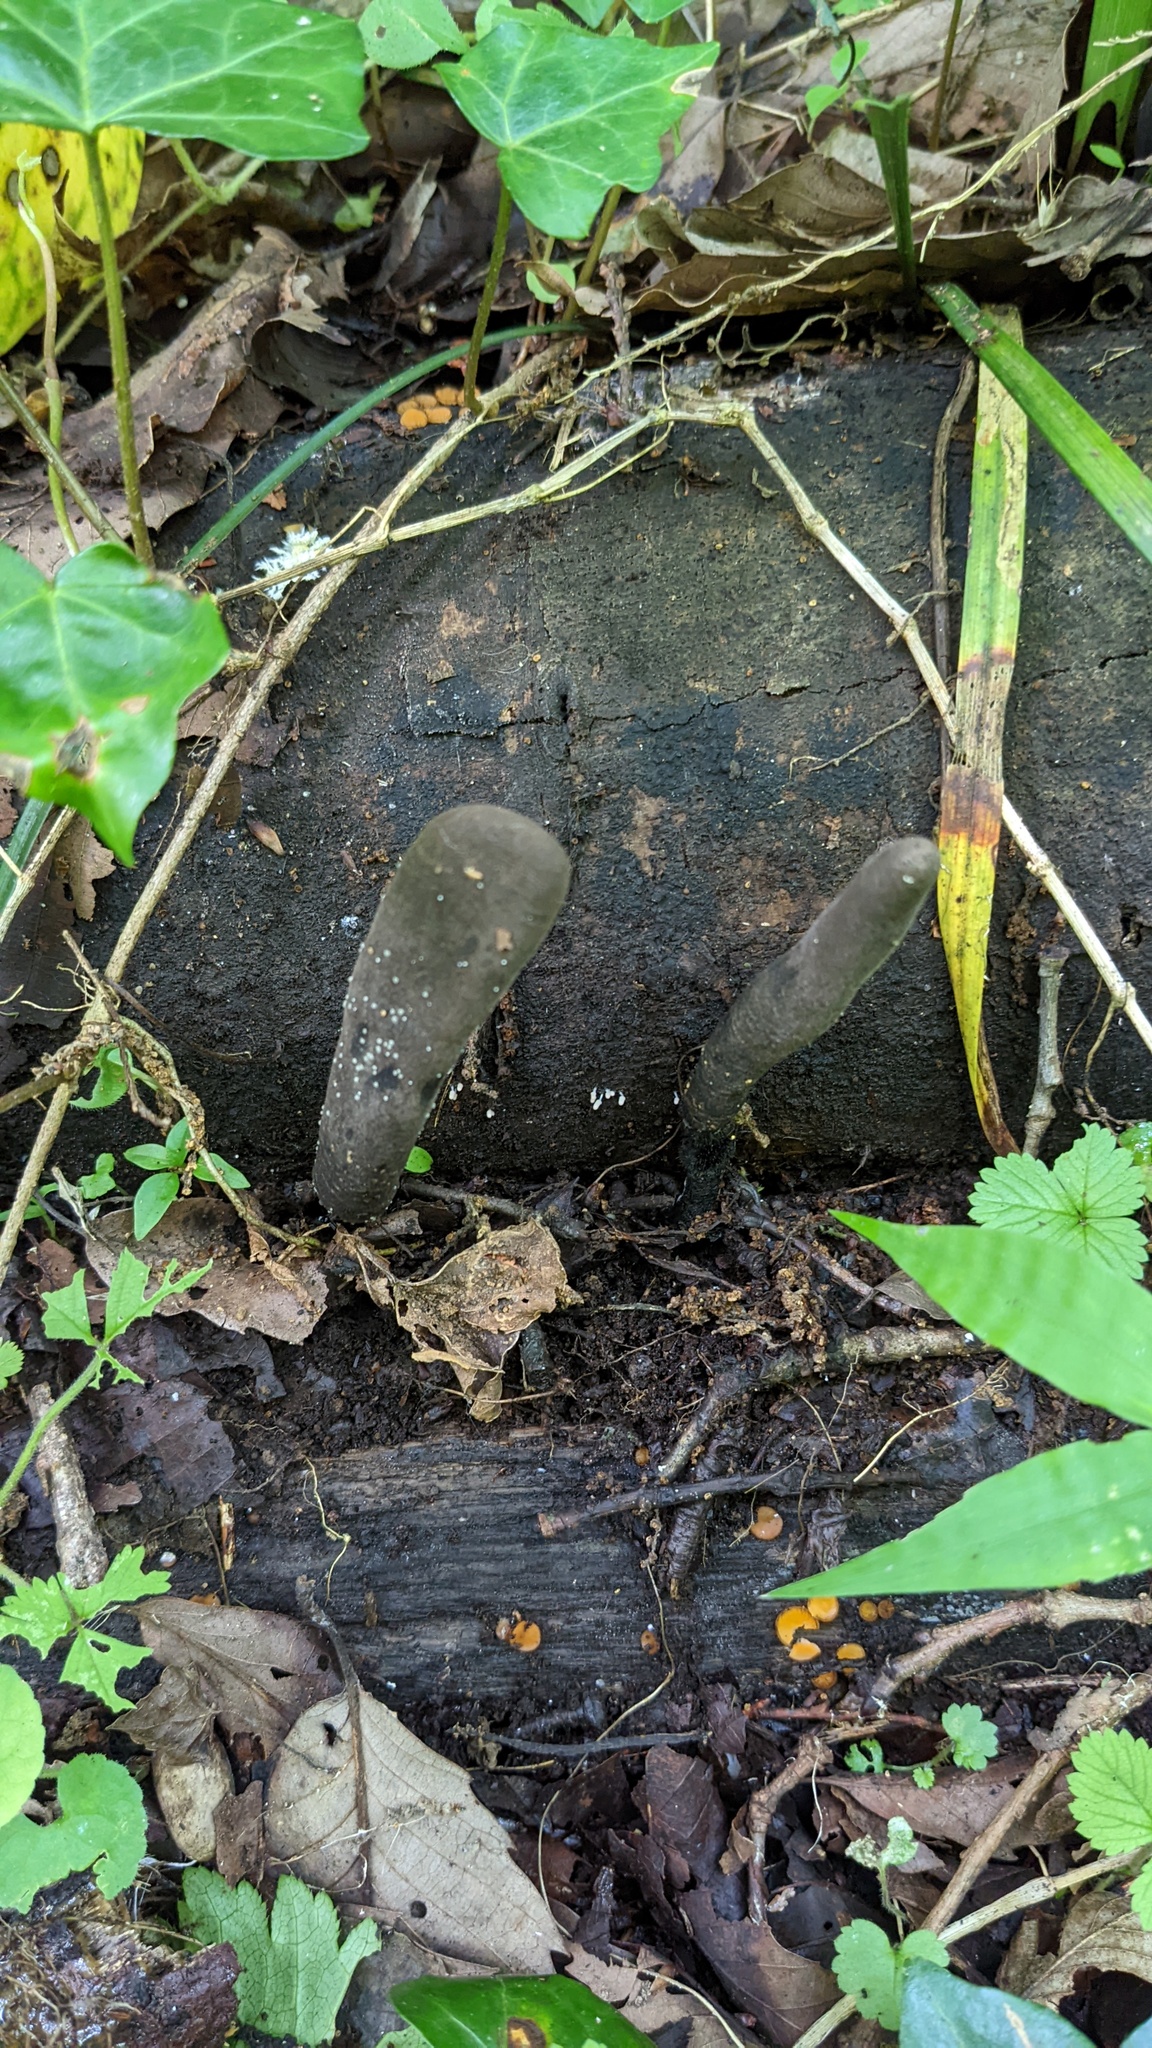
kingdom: Fungi
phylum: Ascomycota
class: Sordariomycetes
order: Xylariales
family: Xylariaceae
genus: Xylaria
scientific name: Xylaria polymorpha
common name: Dead man's fingers
